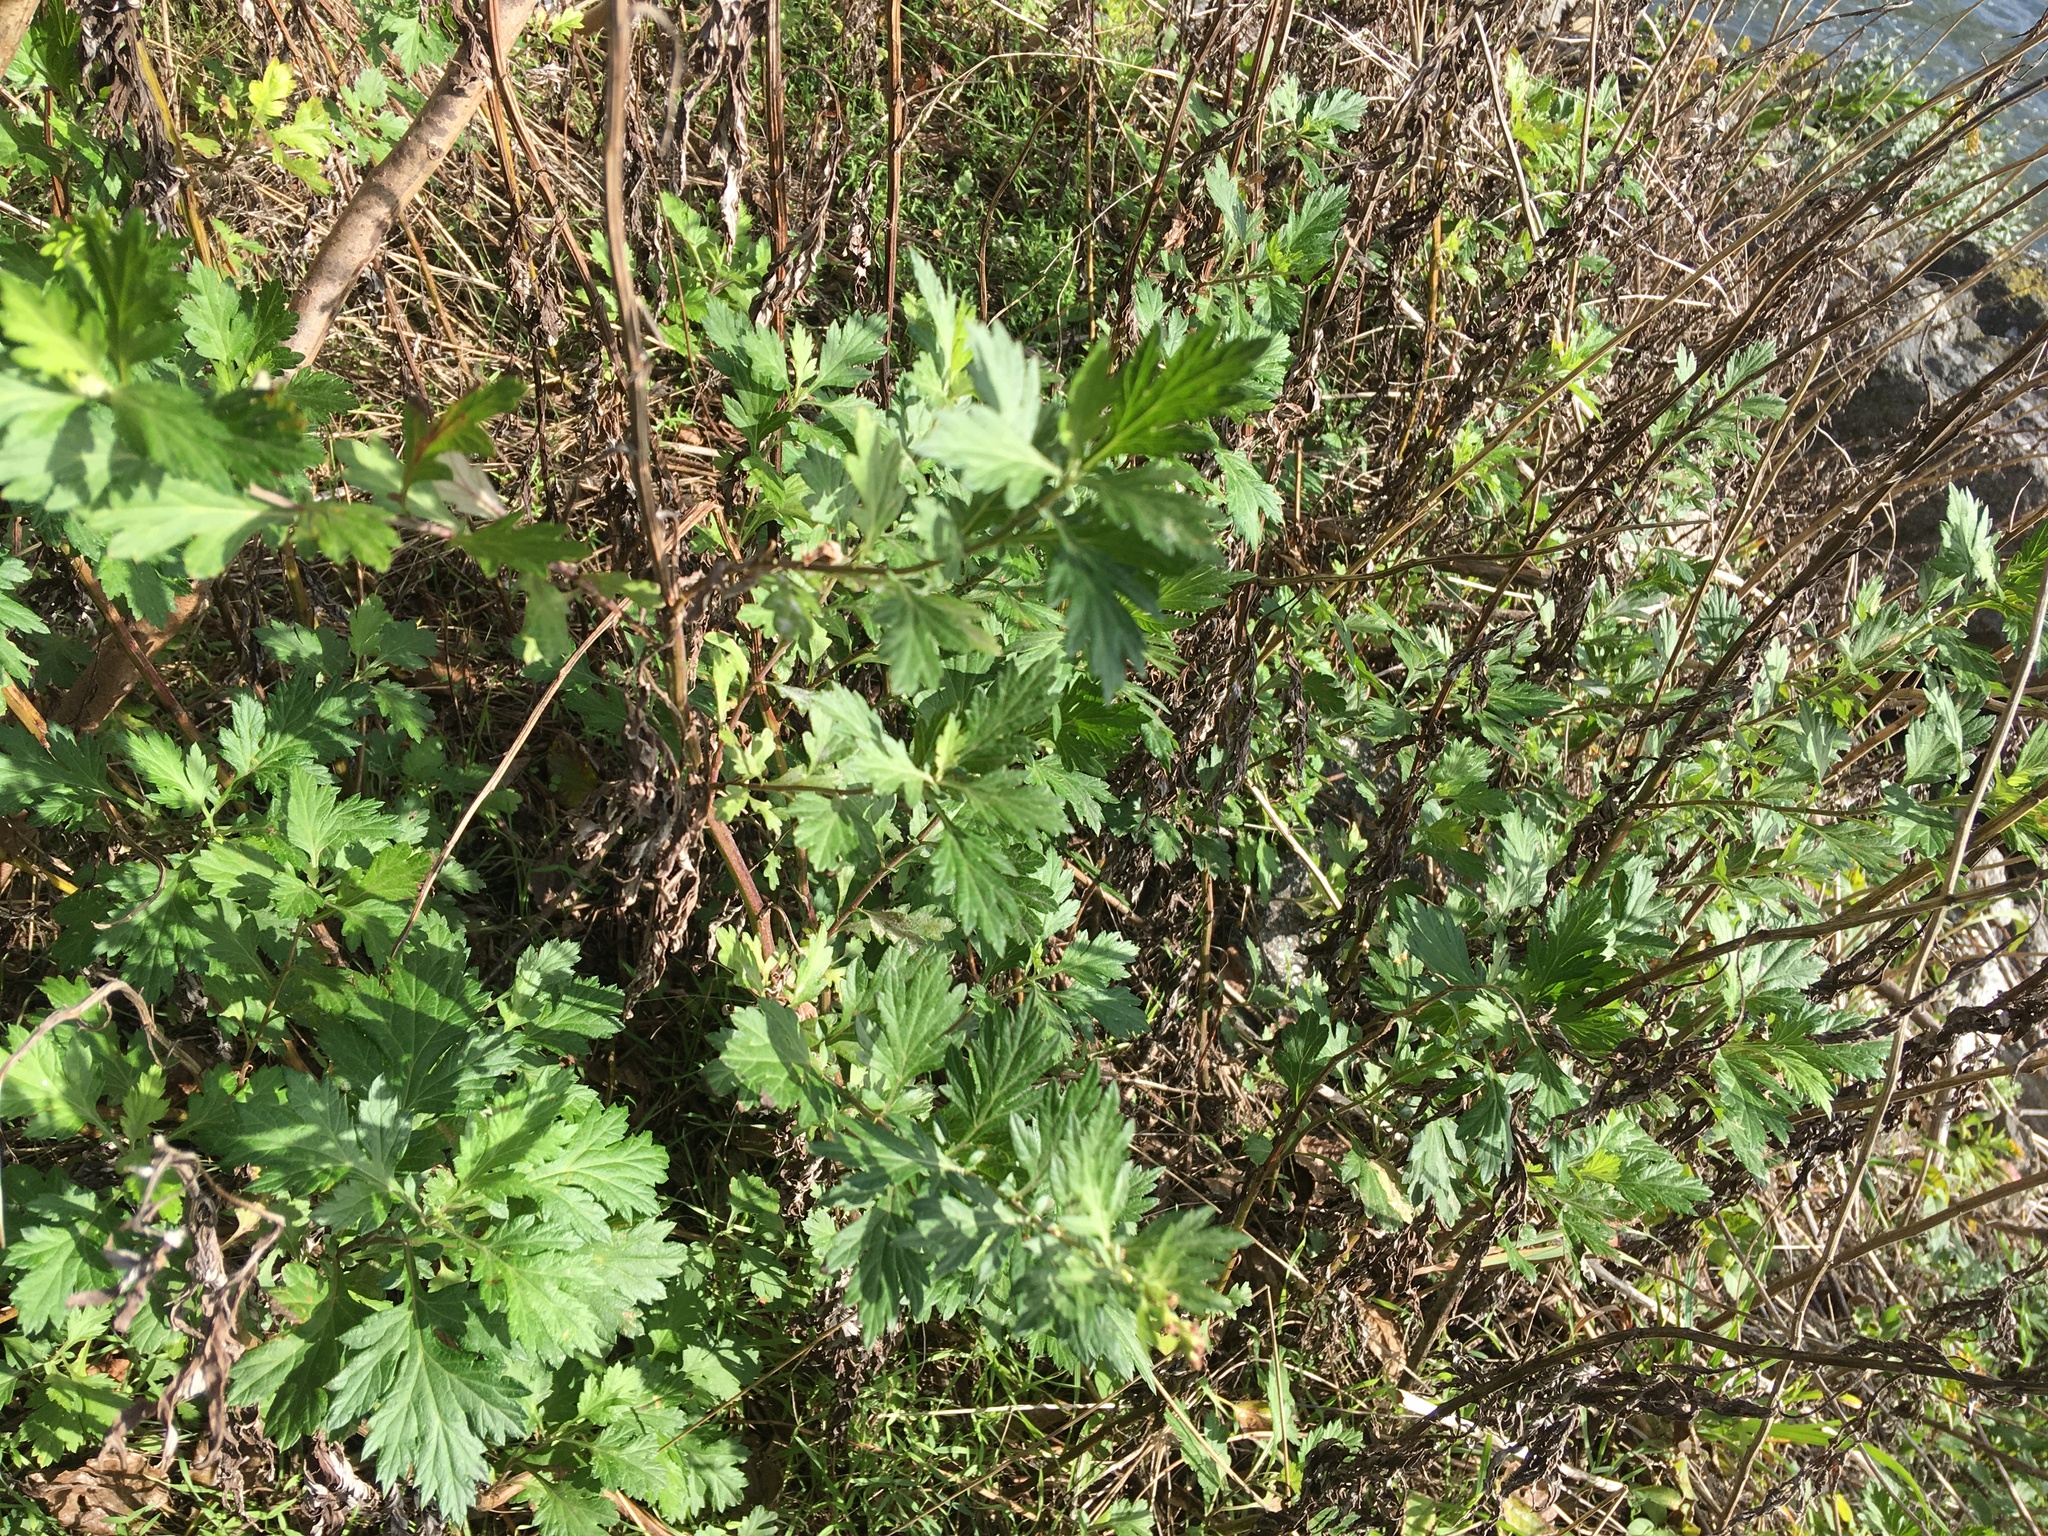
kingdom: Plantae
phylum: Tracheophyta
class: Magnoliopsida
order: Asterales
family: Asteraceae
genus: Artemisia
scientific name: Artemisia vulgaris
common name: Mugwort
